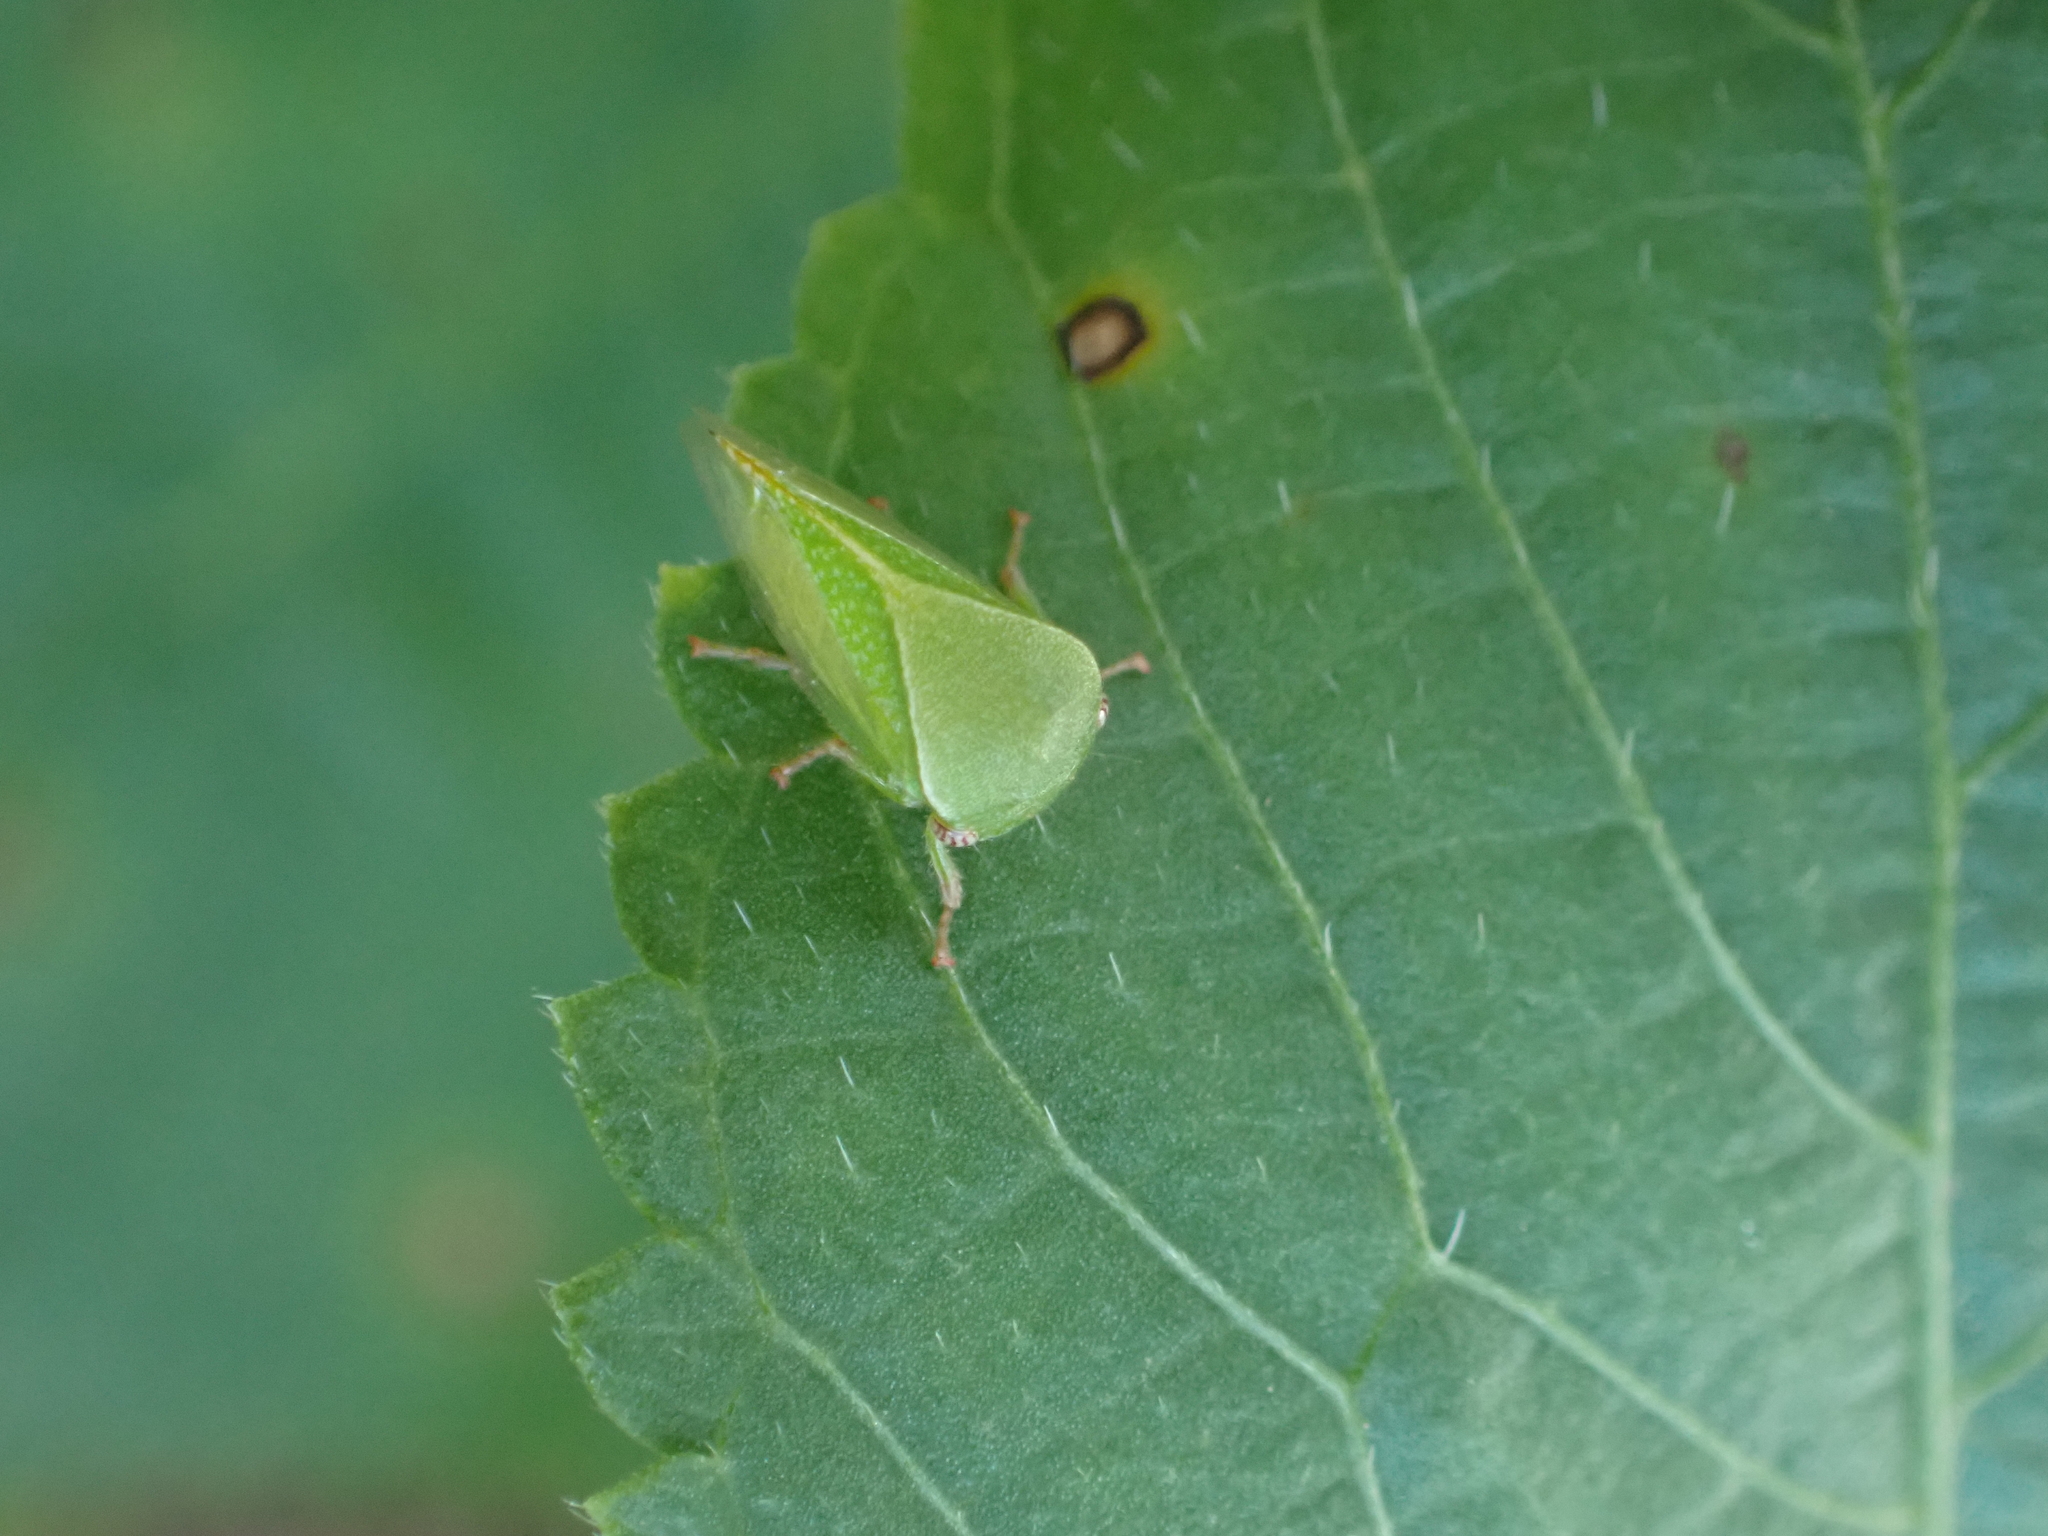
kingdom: Animalia
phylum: Arthropoda
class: Insecta
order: Hemiptera
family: Membracidae
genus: Spissistilus
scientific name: Spissistilus festina
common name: Membracid bug
